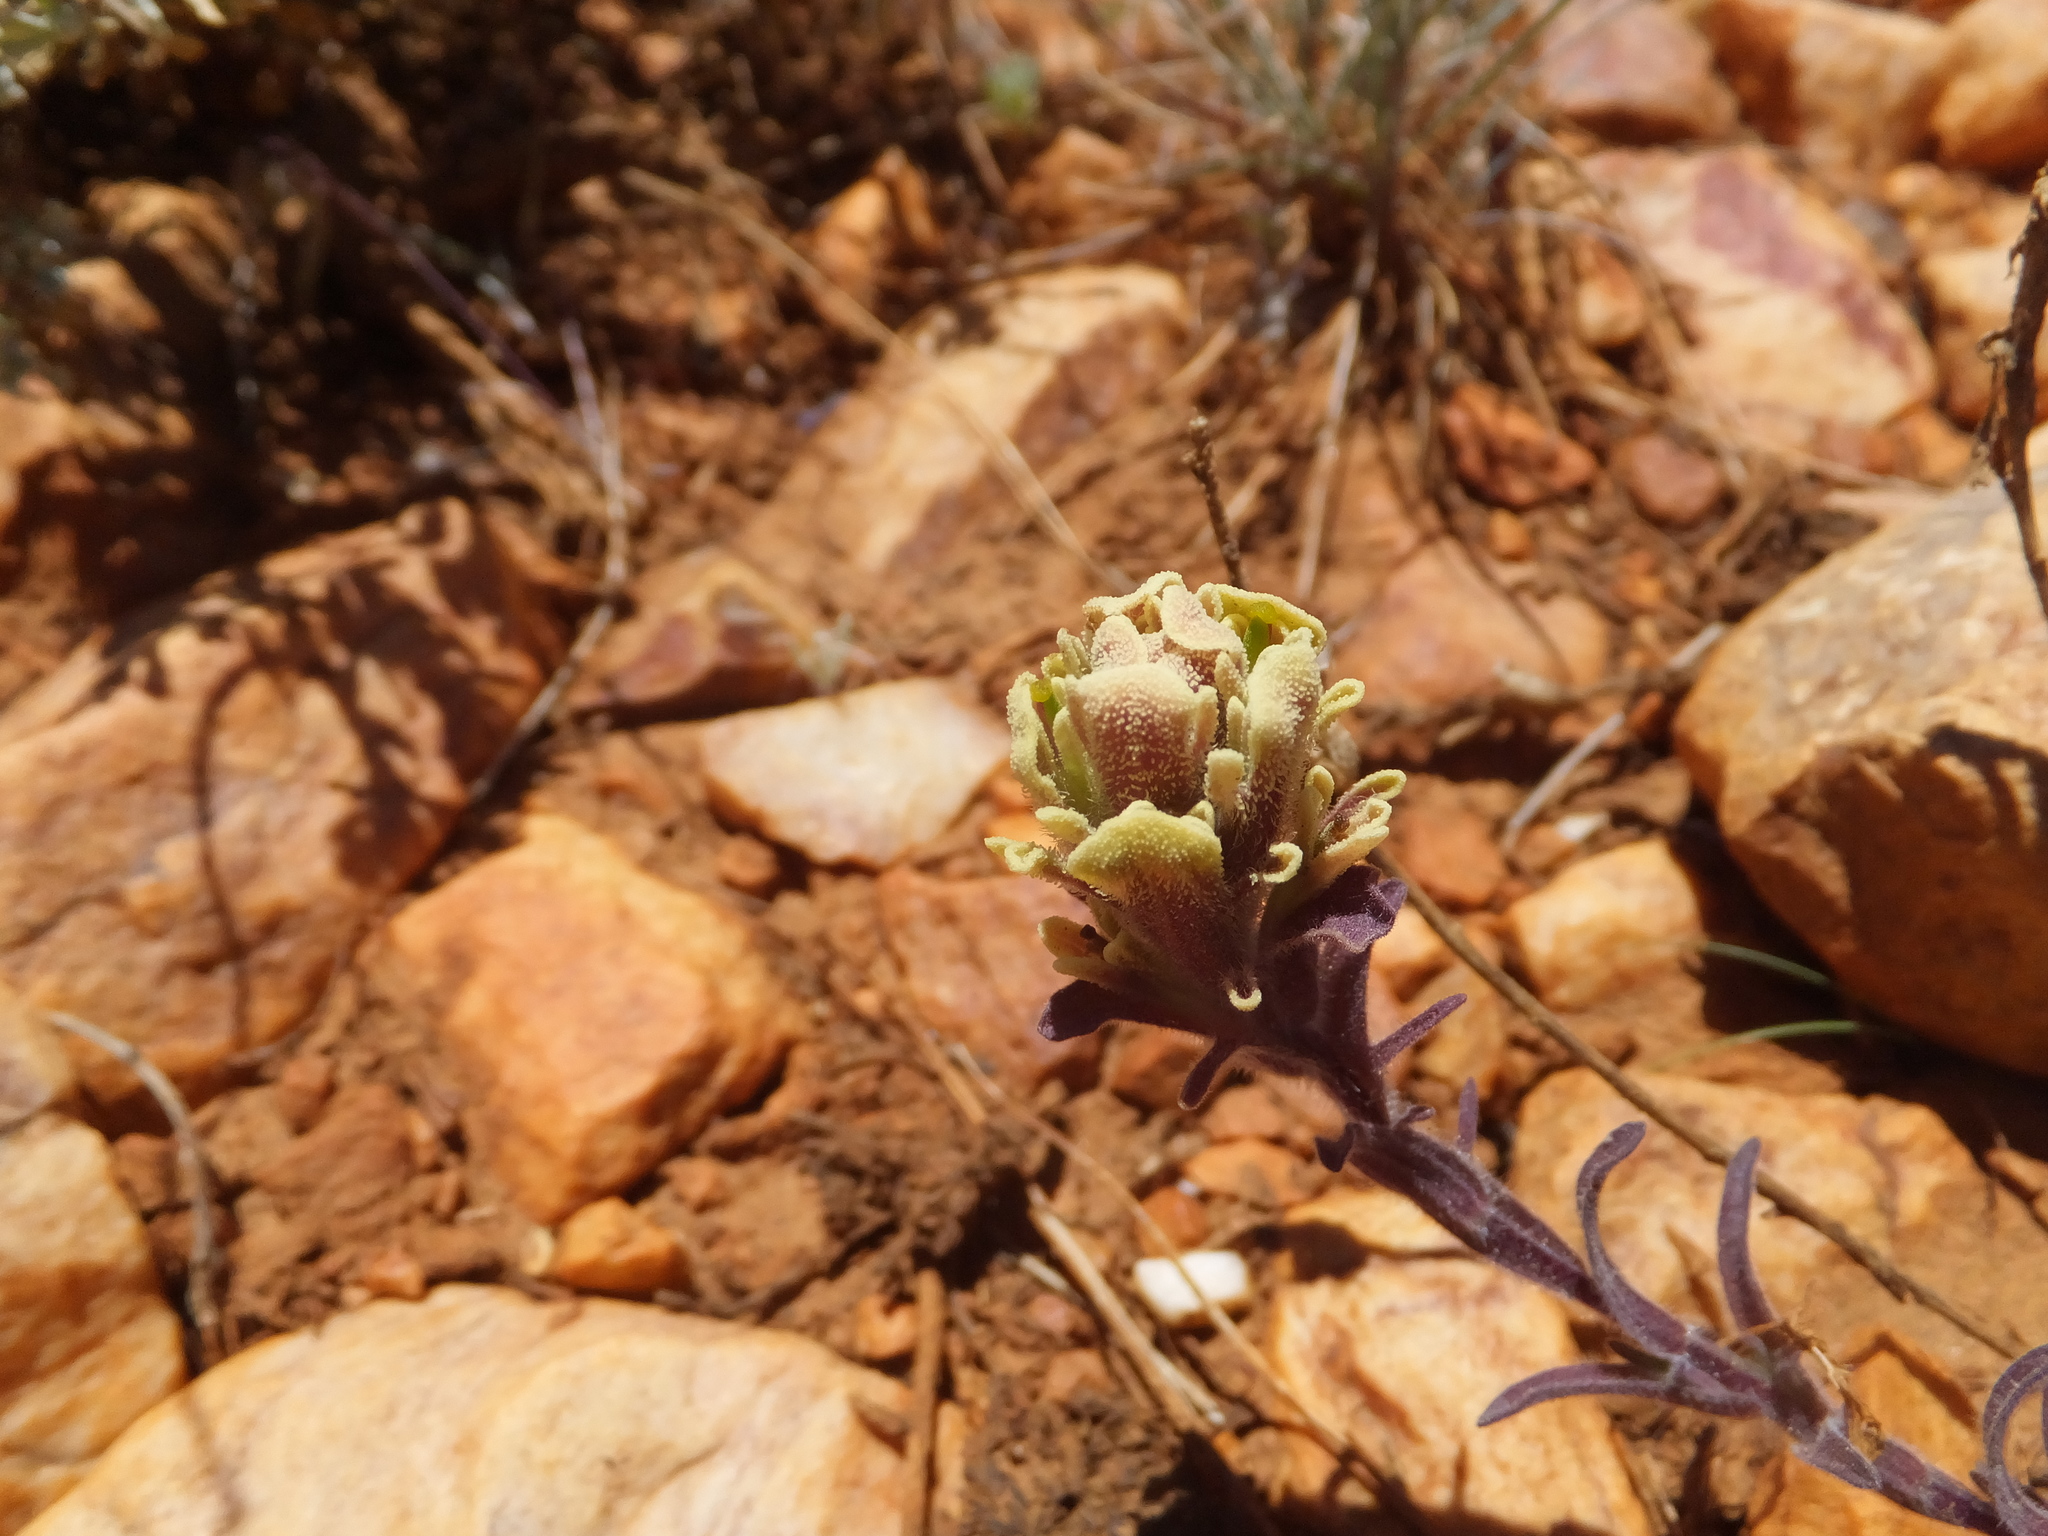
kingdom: Plantae
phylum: Tracheophyta
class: Magnoliopsida
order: Lamiales
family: Orobanchaceae
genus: Castilleja
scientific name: Castilleja cinerea
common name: Ash-gray indian paintbrush
